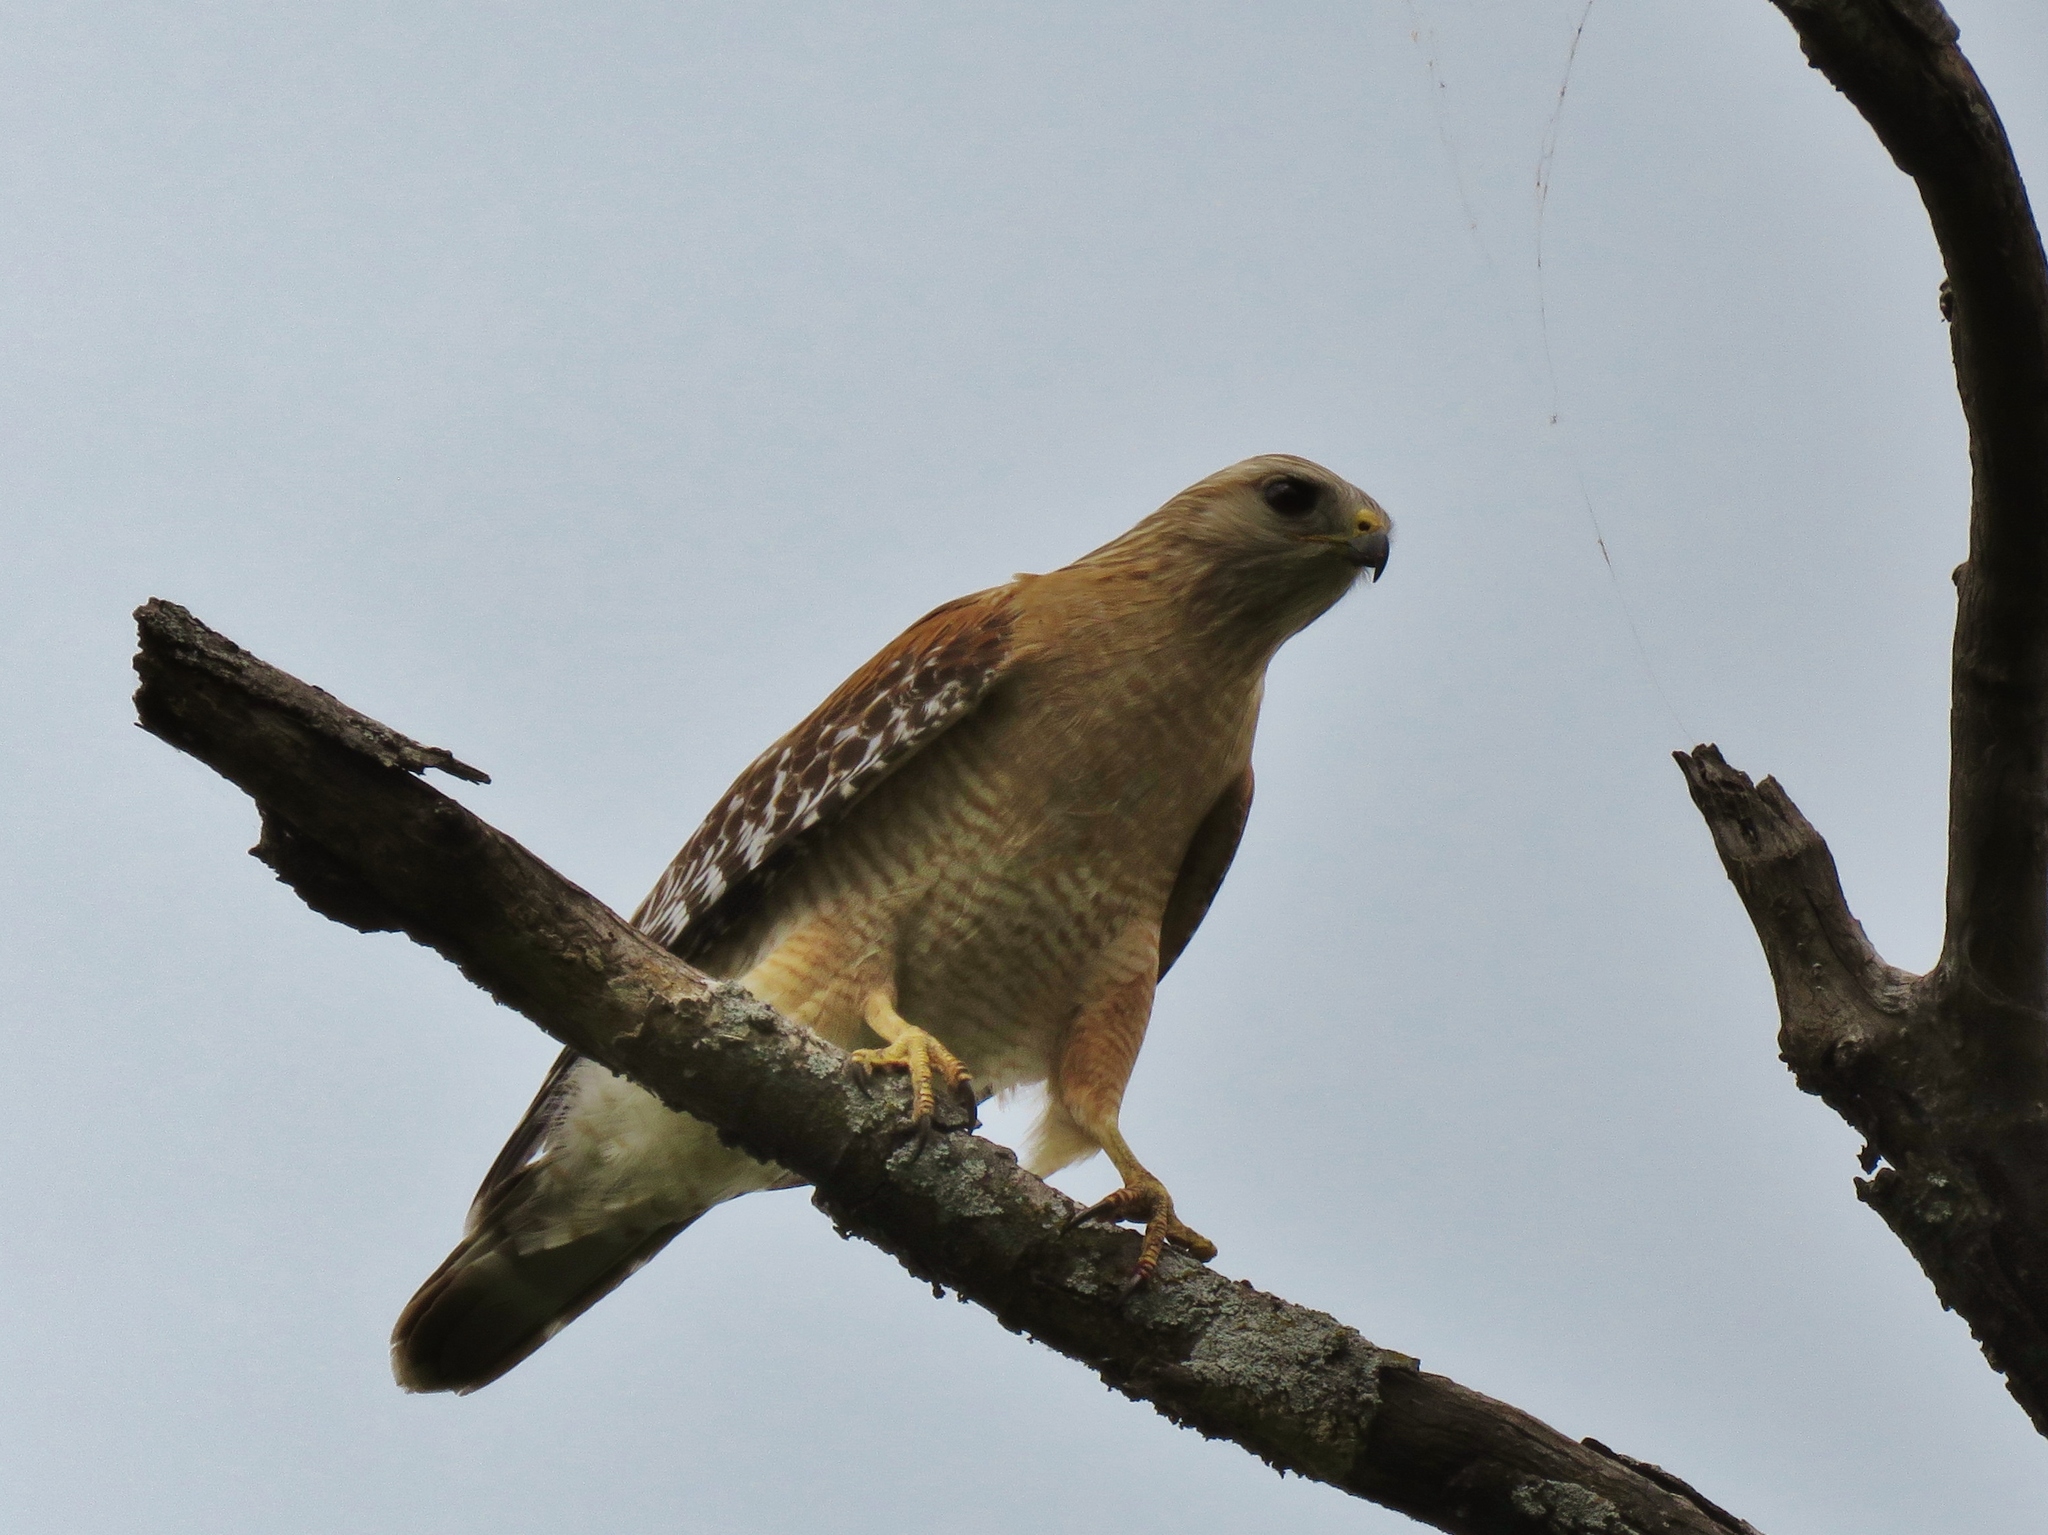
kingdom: Animalia
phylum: Chordata
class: Aves
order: Accipitriformes
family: Accipitridae
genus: Buteo
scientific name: Buteo lineatus
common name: Red-shouldered hawk
